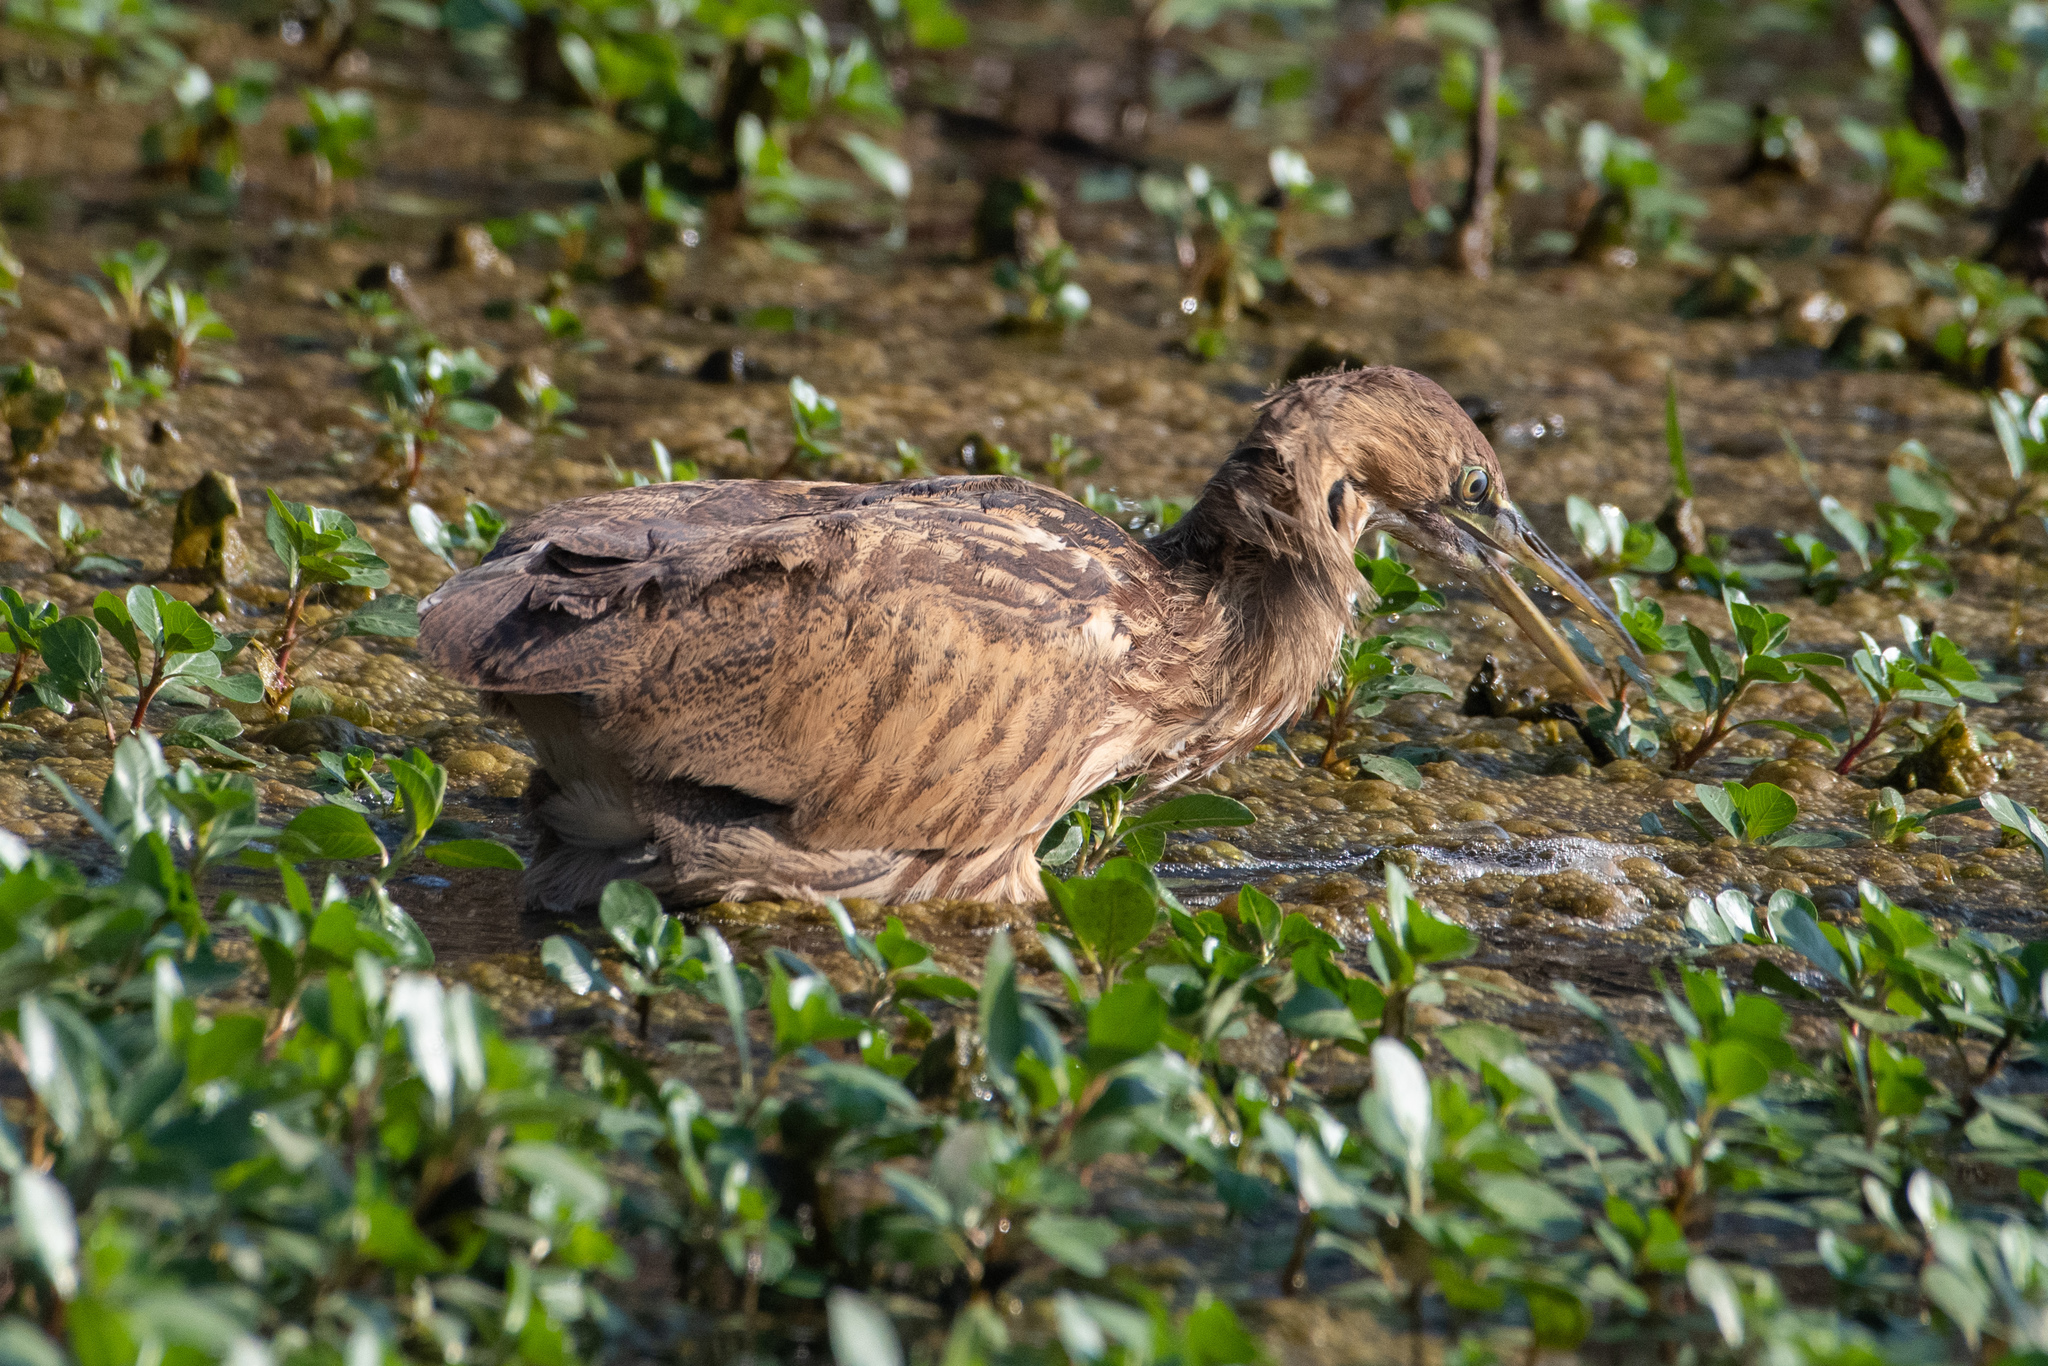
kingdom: Animalia
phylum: Chordata
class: Aves
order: Pelecaniformes
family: Ardeidae
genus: Botaurus
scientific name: Botaurus lentiginosus
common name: American bittern
